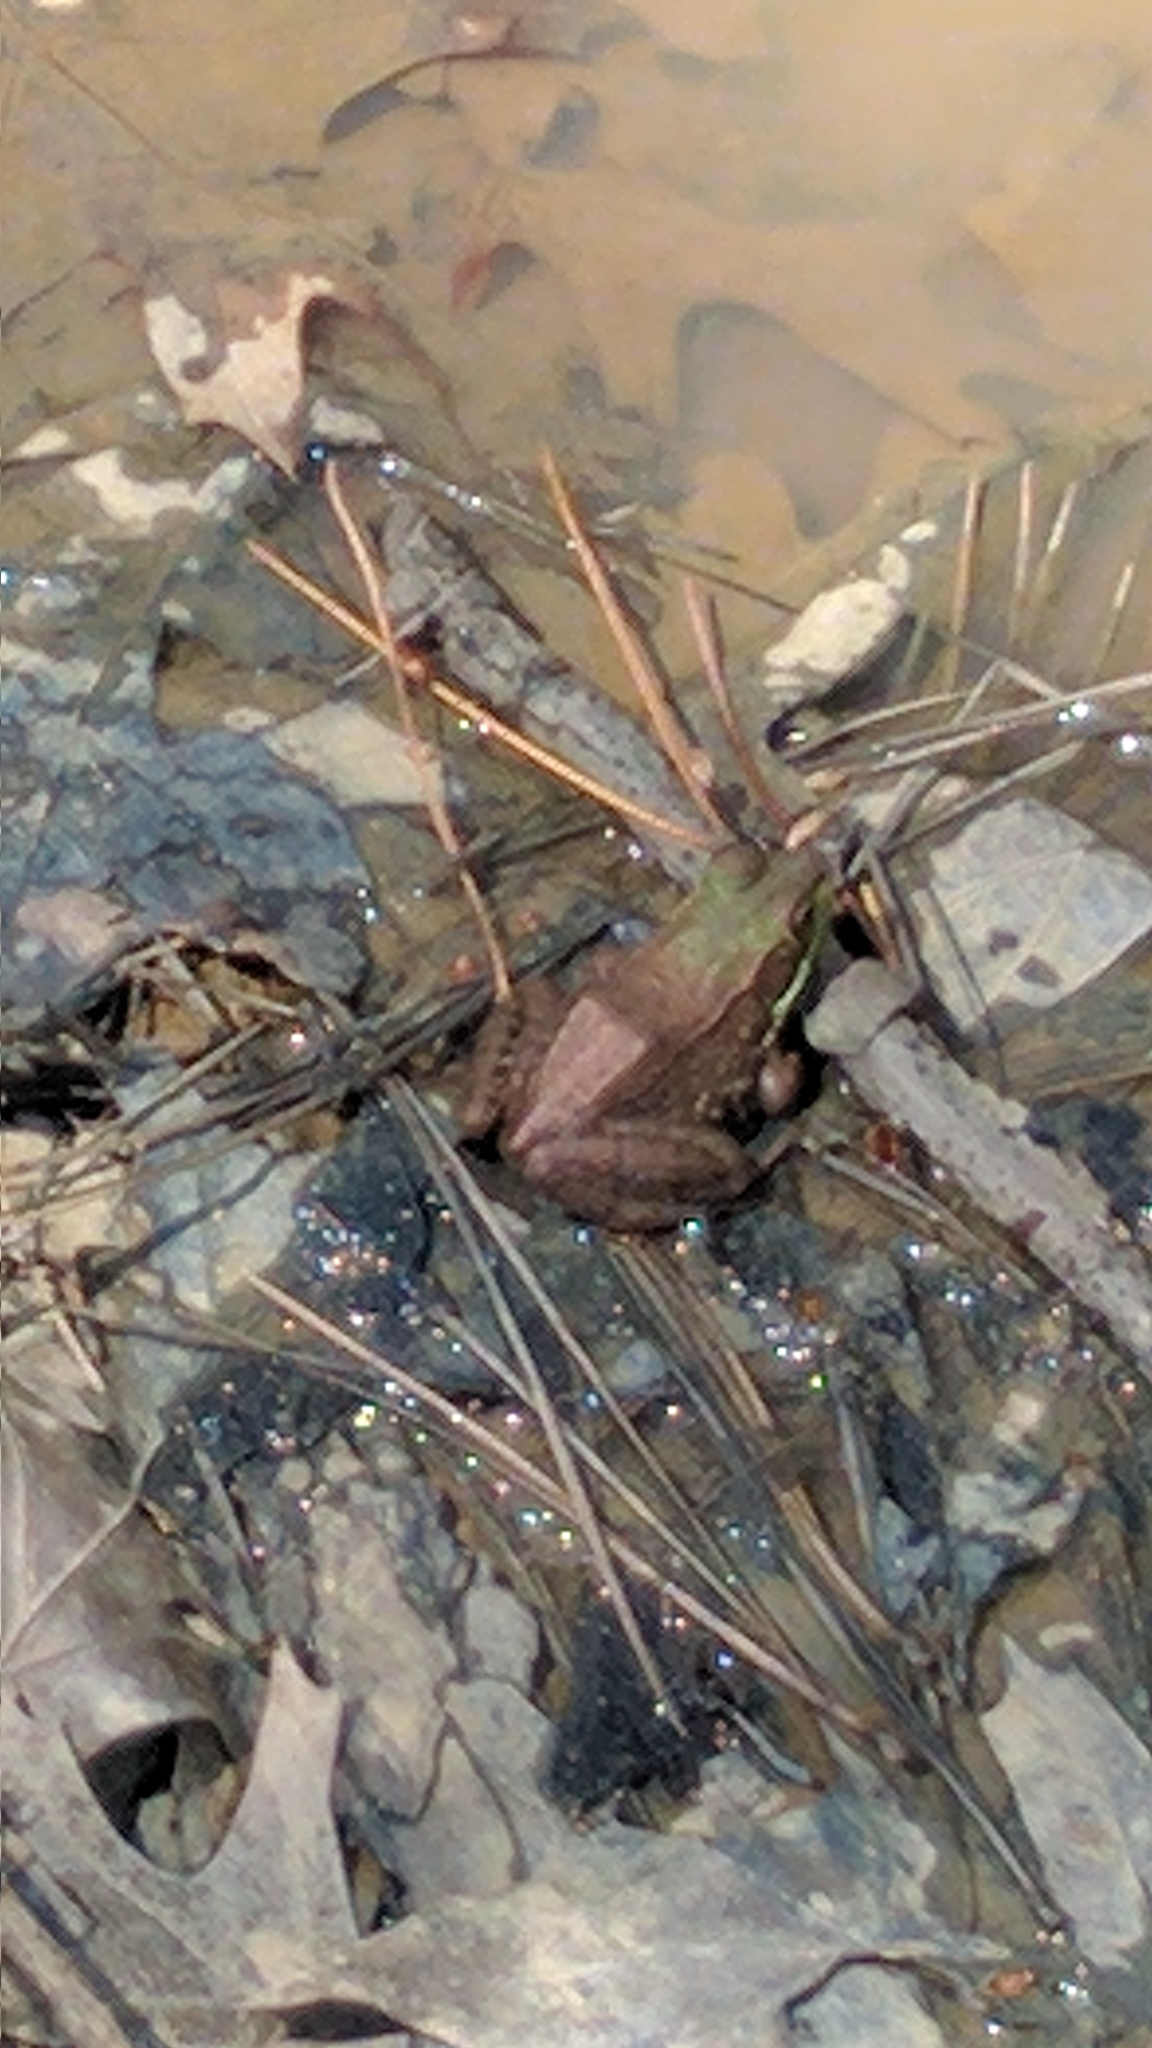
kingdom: Animalia
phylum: Chordata
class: Amphibia
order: Anura
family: Ranidae
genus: Lithobates
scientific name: Lithobates clamitans
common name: Green frog
